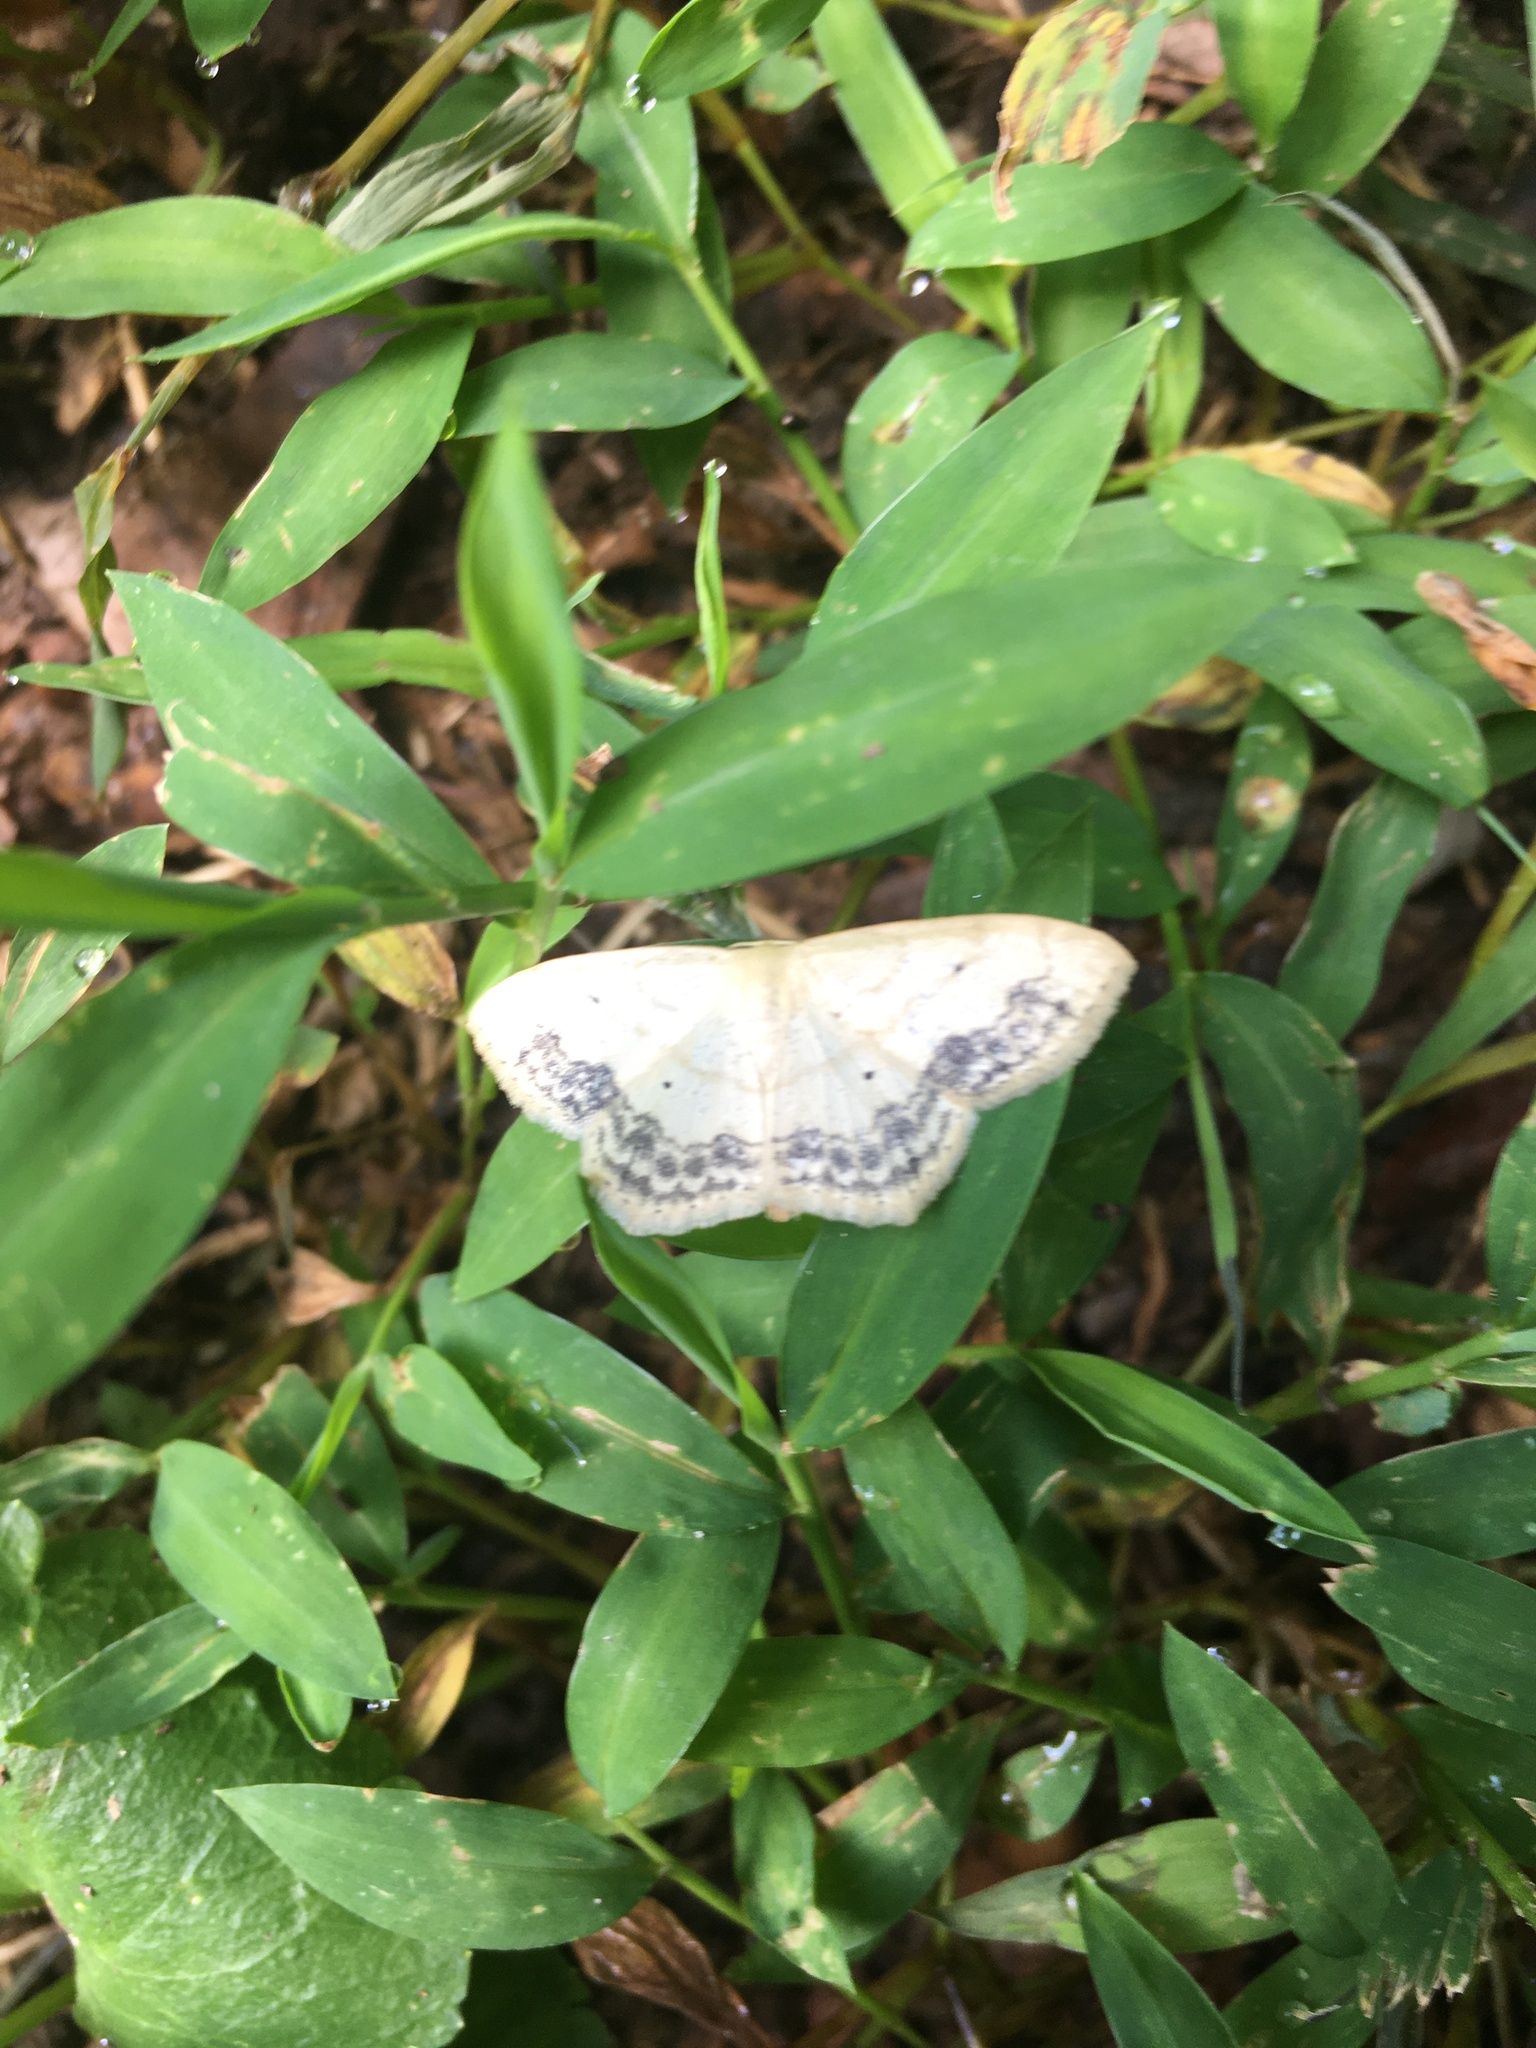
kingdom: Animalia
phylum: Arthropoda
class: Insecta
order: Lepidoptera
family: Geometridae
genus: Scopula
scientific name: Scopula limboundata
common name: Large lace border
